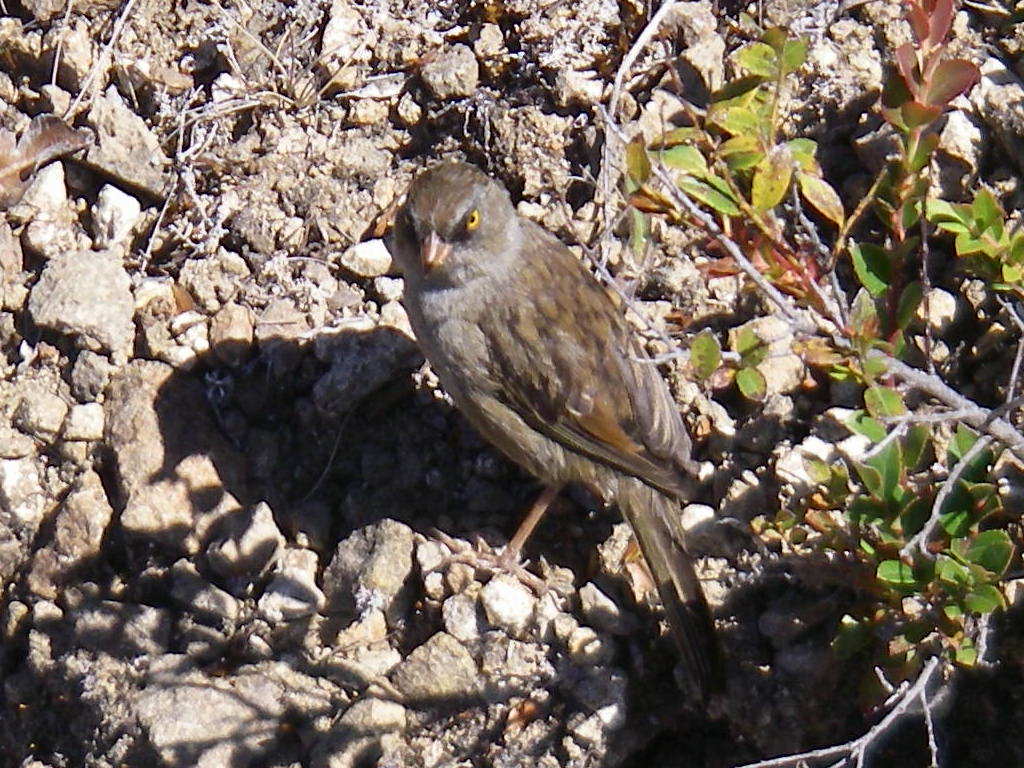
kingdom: Animalia
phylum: Chordata
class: Aves
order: Passeriformes
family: Passerellidae
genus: Junco
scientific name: Junco vulcani
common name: Volcano junco
